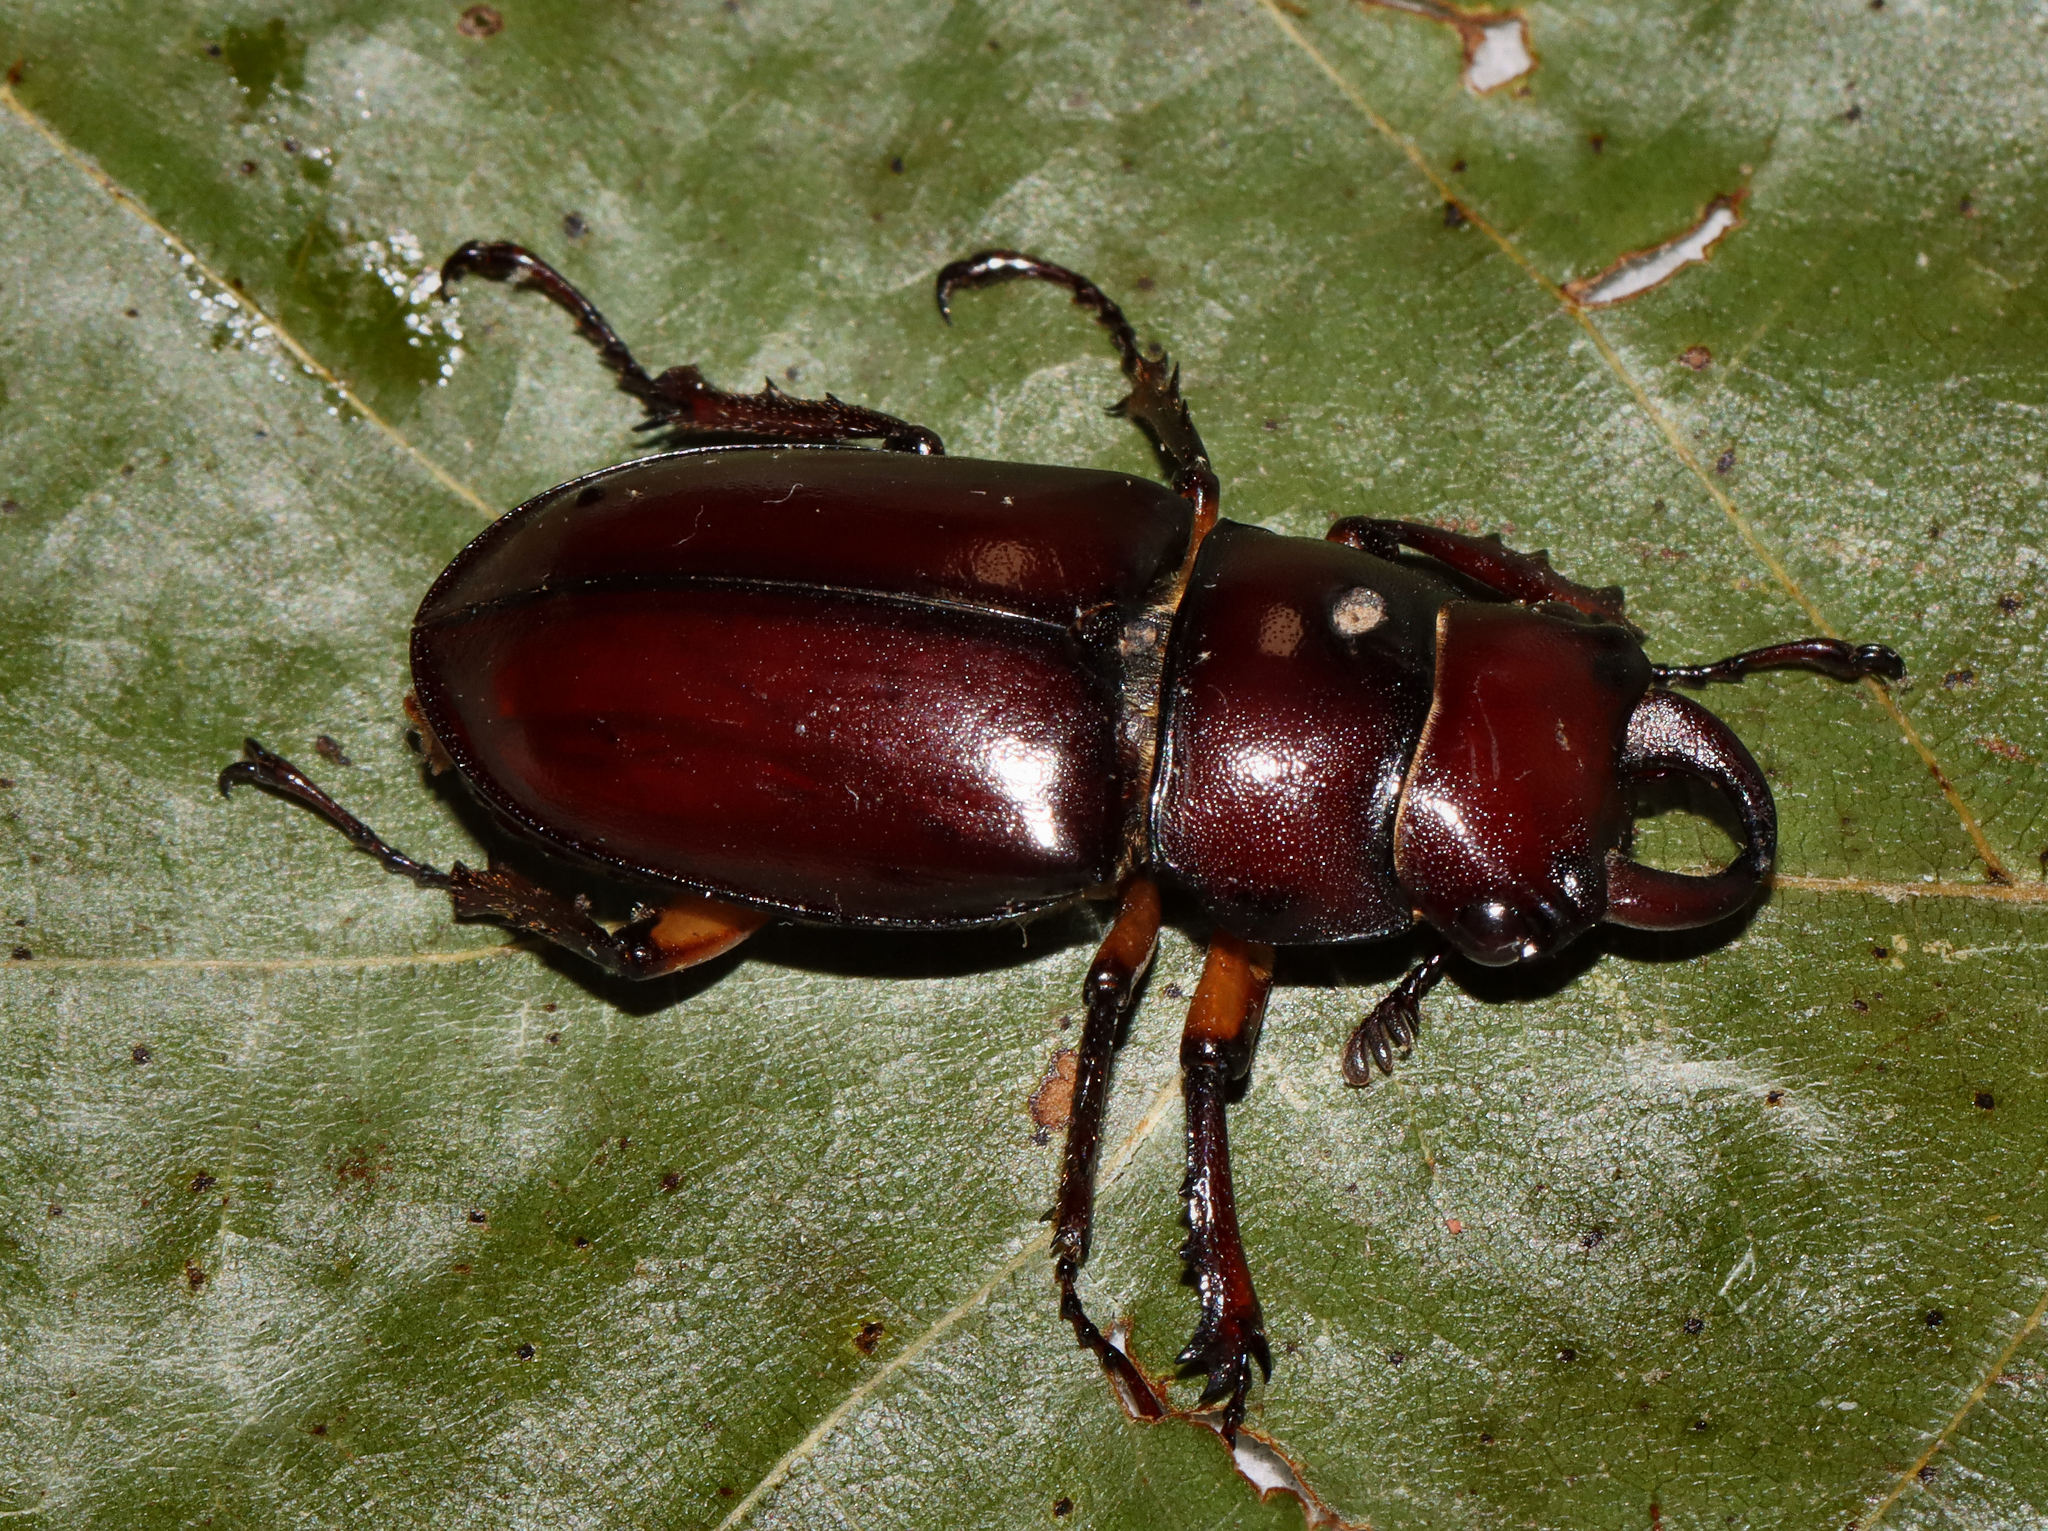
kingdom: Animalia
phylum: Arthropoda
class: Insecta
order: Coleoptera
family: Lucanidae
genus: Lucanus
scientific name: Lucanus capreolus
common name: Stag beetle
